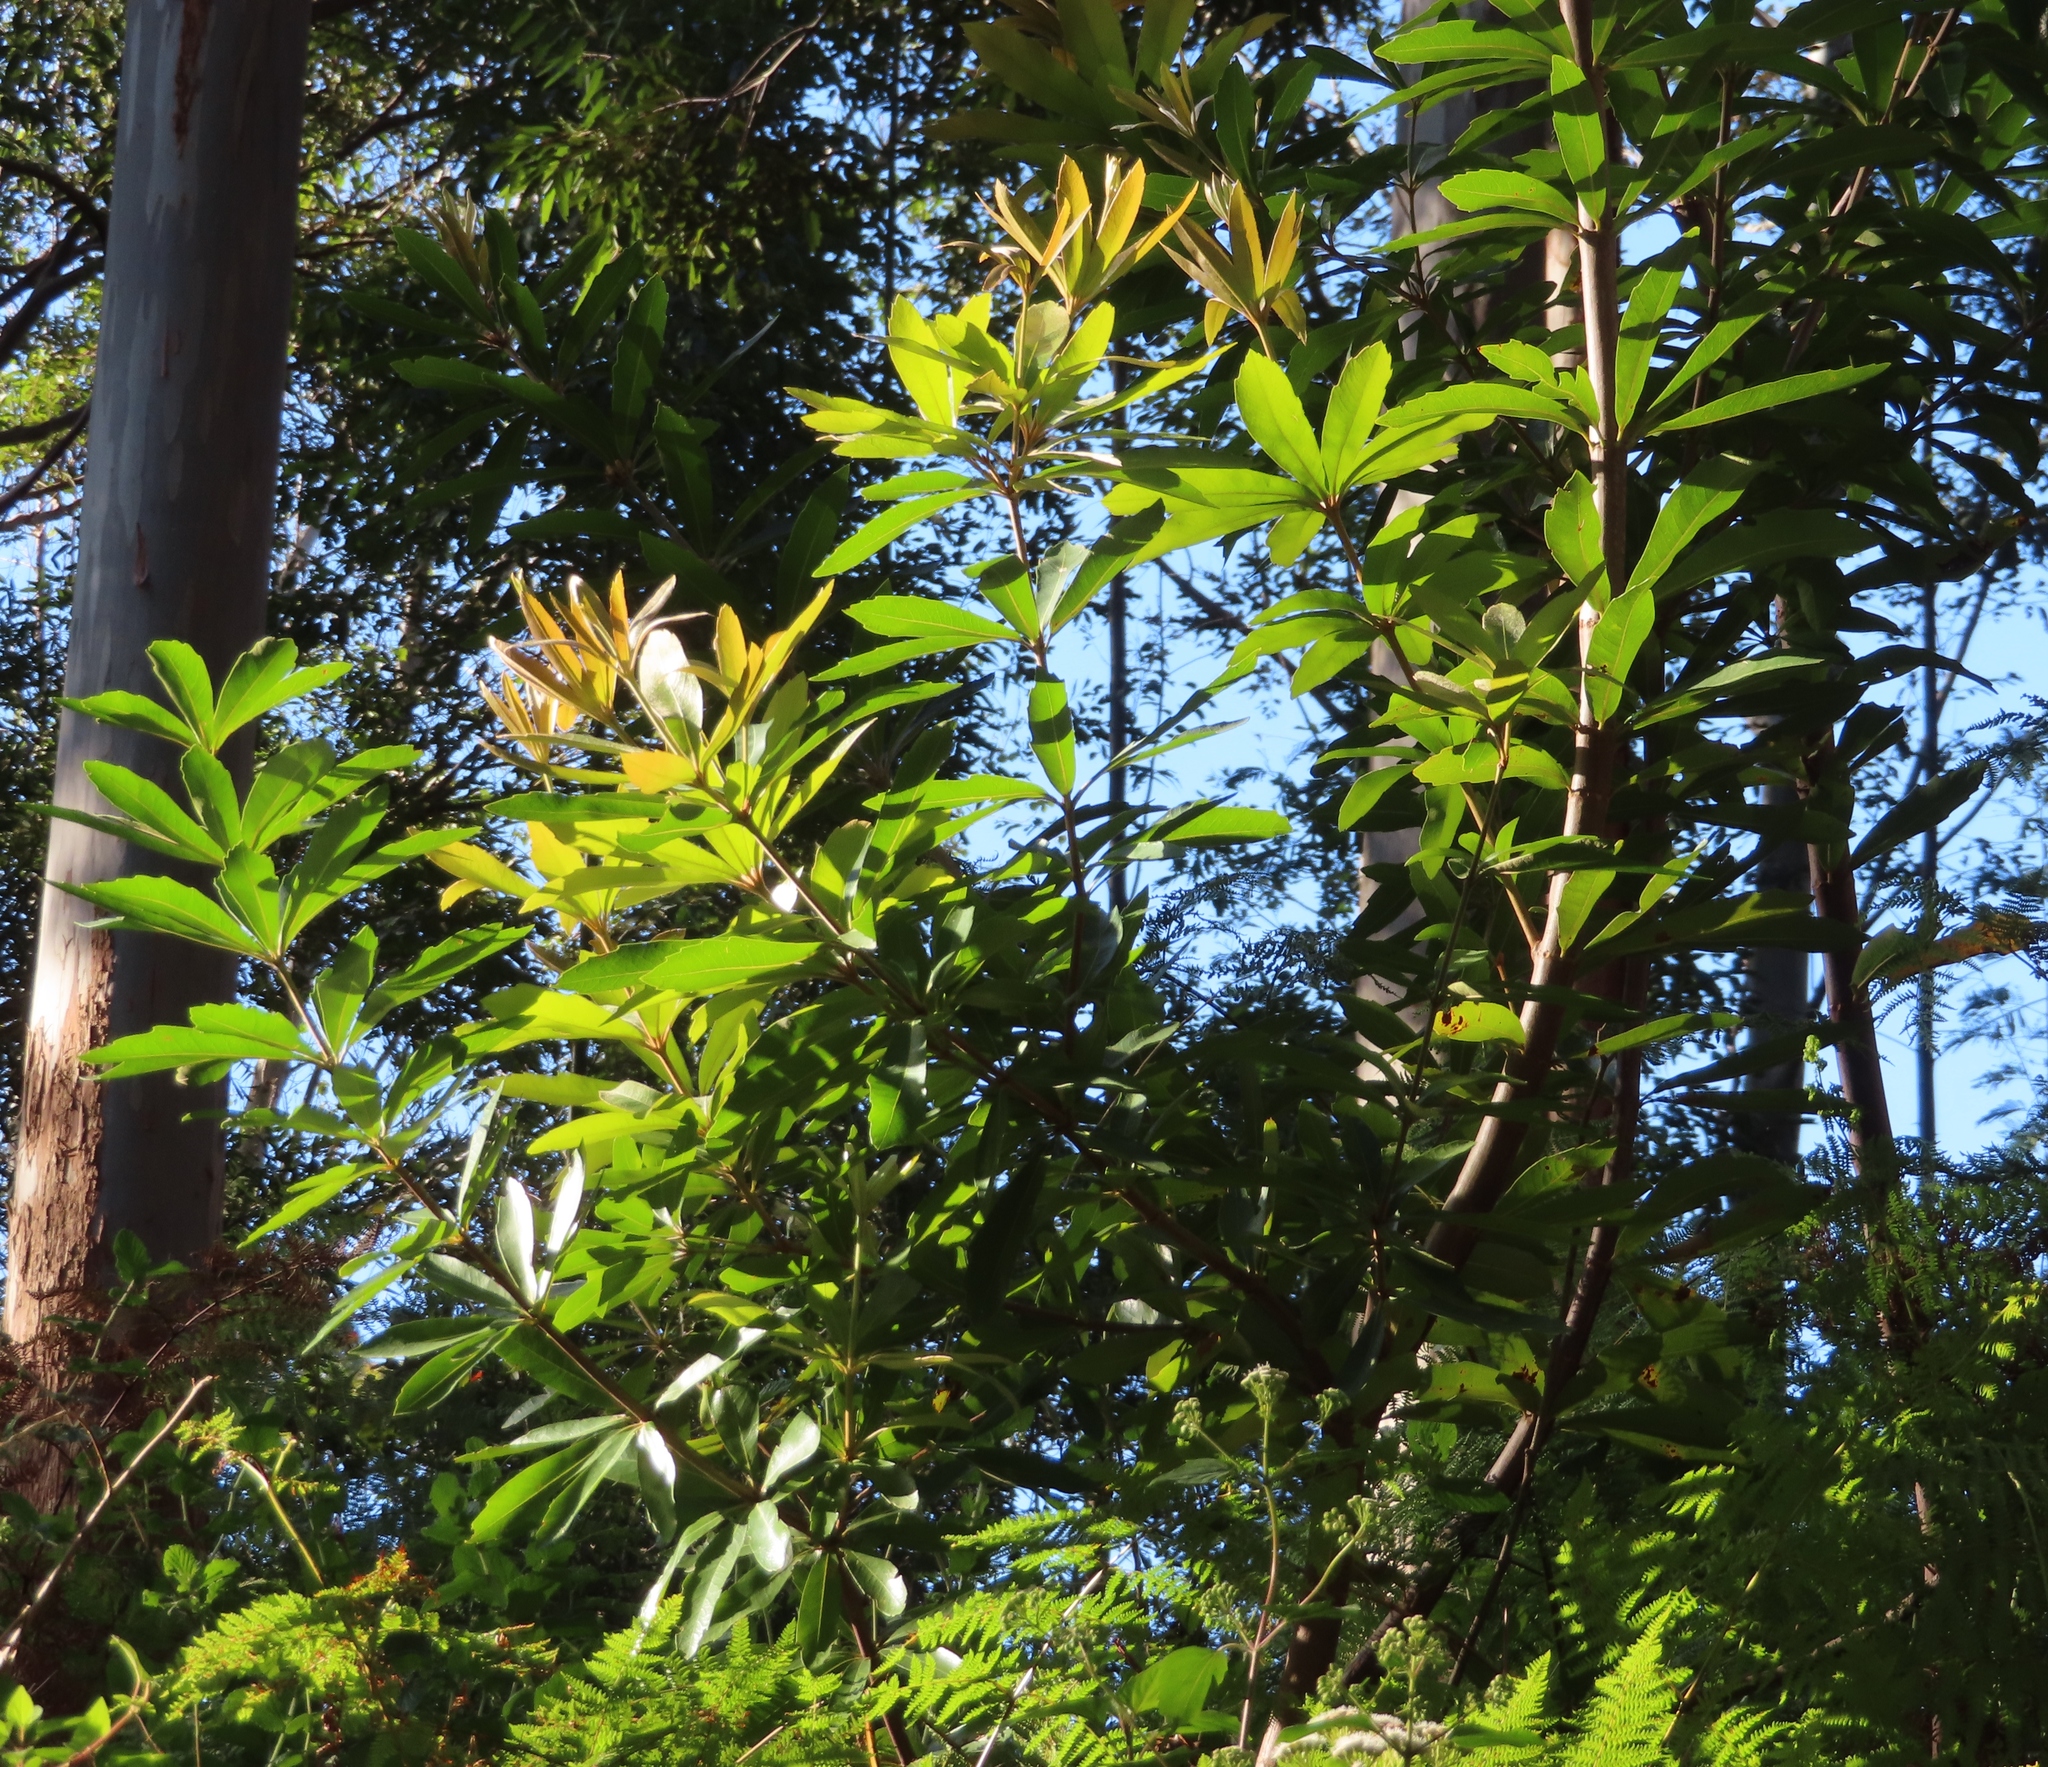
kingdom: Plantae
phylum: Tracheophyta
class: Magnoliopsida
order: Proteales
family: Proteaceae
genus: Brabejum
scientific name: Brabejum stellatifolium
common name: Wild almond
